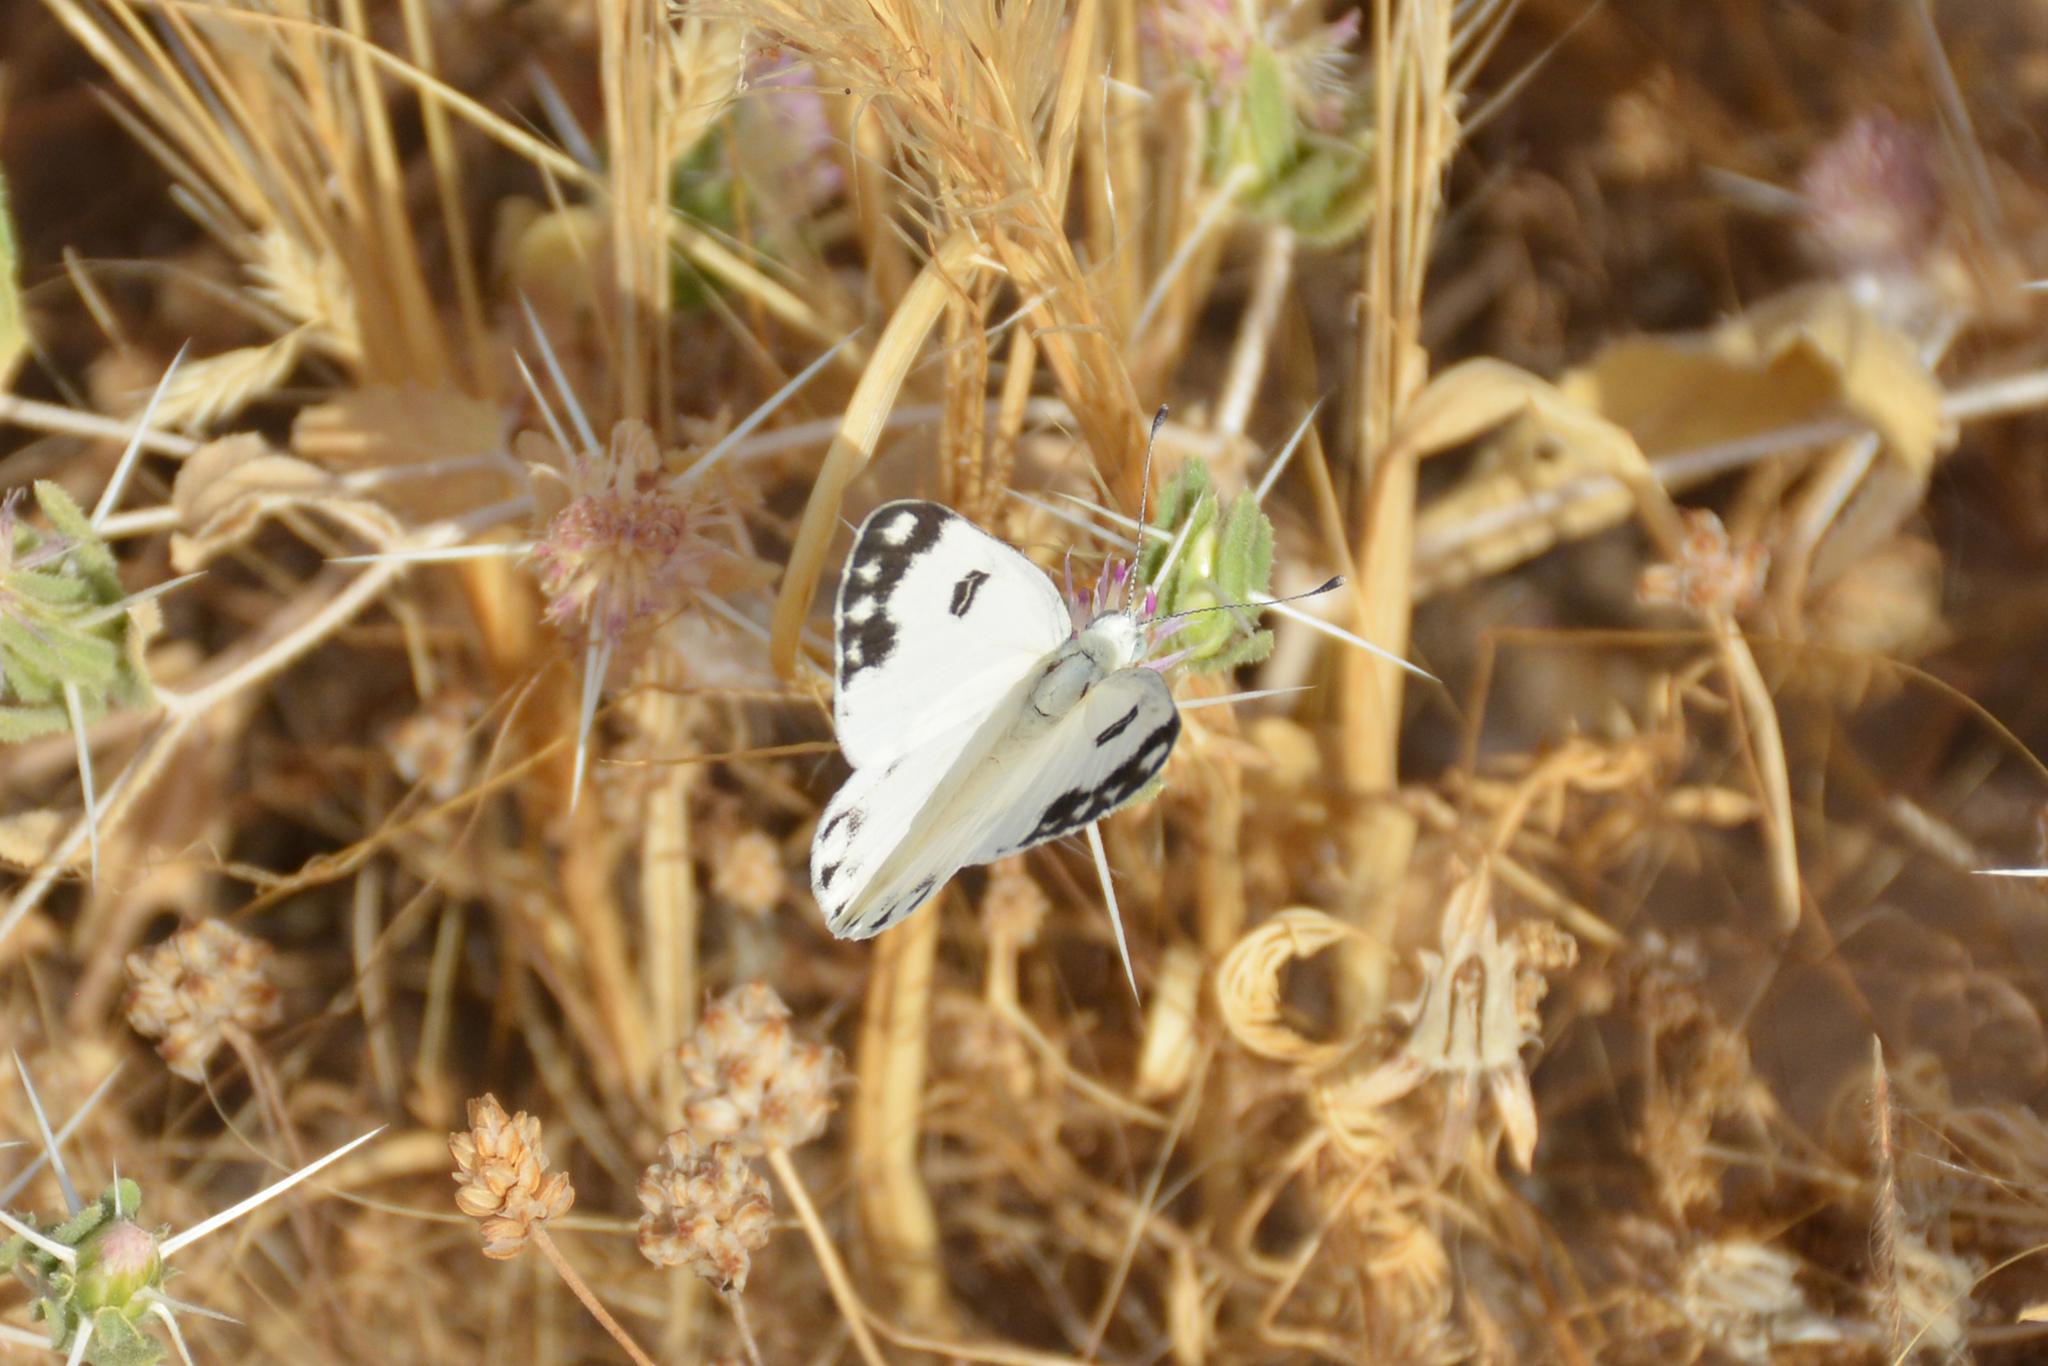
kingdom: Animalia
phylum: Arthropoda
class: Insecta
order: Lepidoptera
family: Pieridae
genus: Pontia
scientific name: Pontia glauconome
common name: Desert bath white
